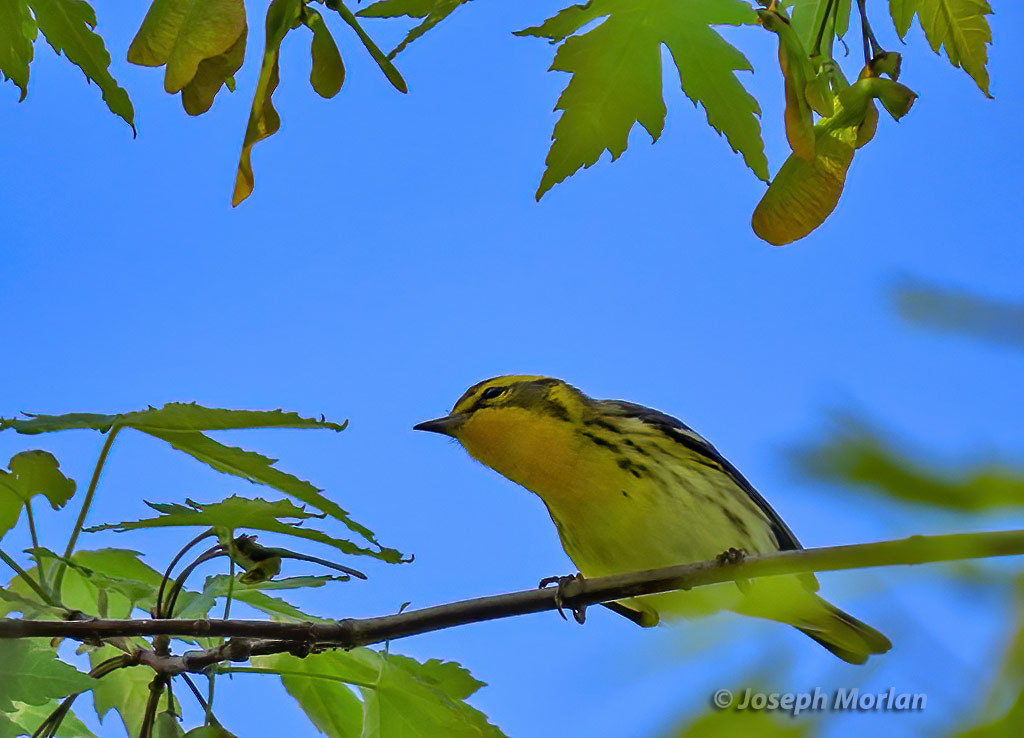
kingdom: Animalia
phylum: Chordata
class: Aves
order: Passeriformes
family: Parulidae
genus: Setophaga
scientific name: Setophaga fusca
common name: Blackburnian warbler
